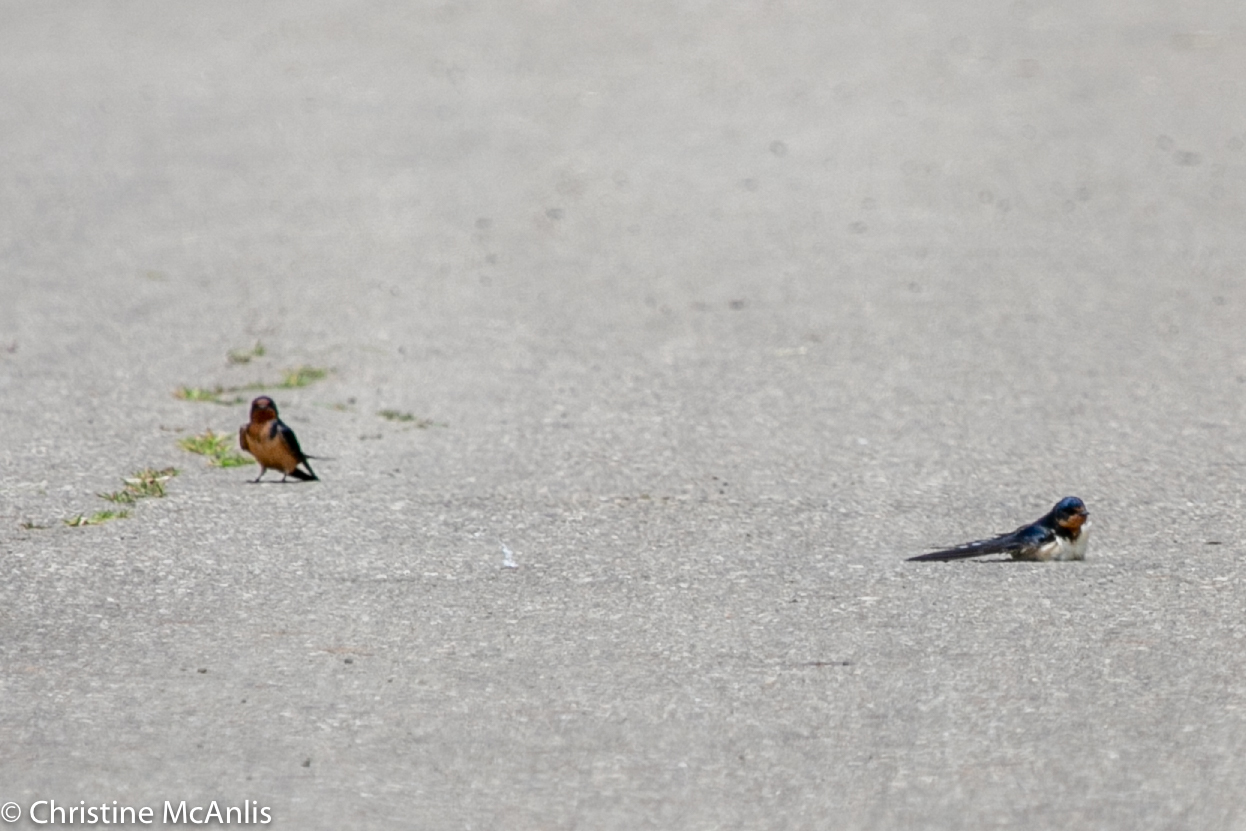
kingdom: Animalia
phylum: Chordata
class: Aves
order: Passeriformes
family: Hirundinidae
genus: Hirundo
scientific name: Hirundo rustica
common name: Barn swallow
